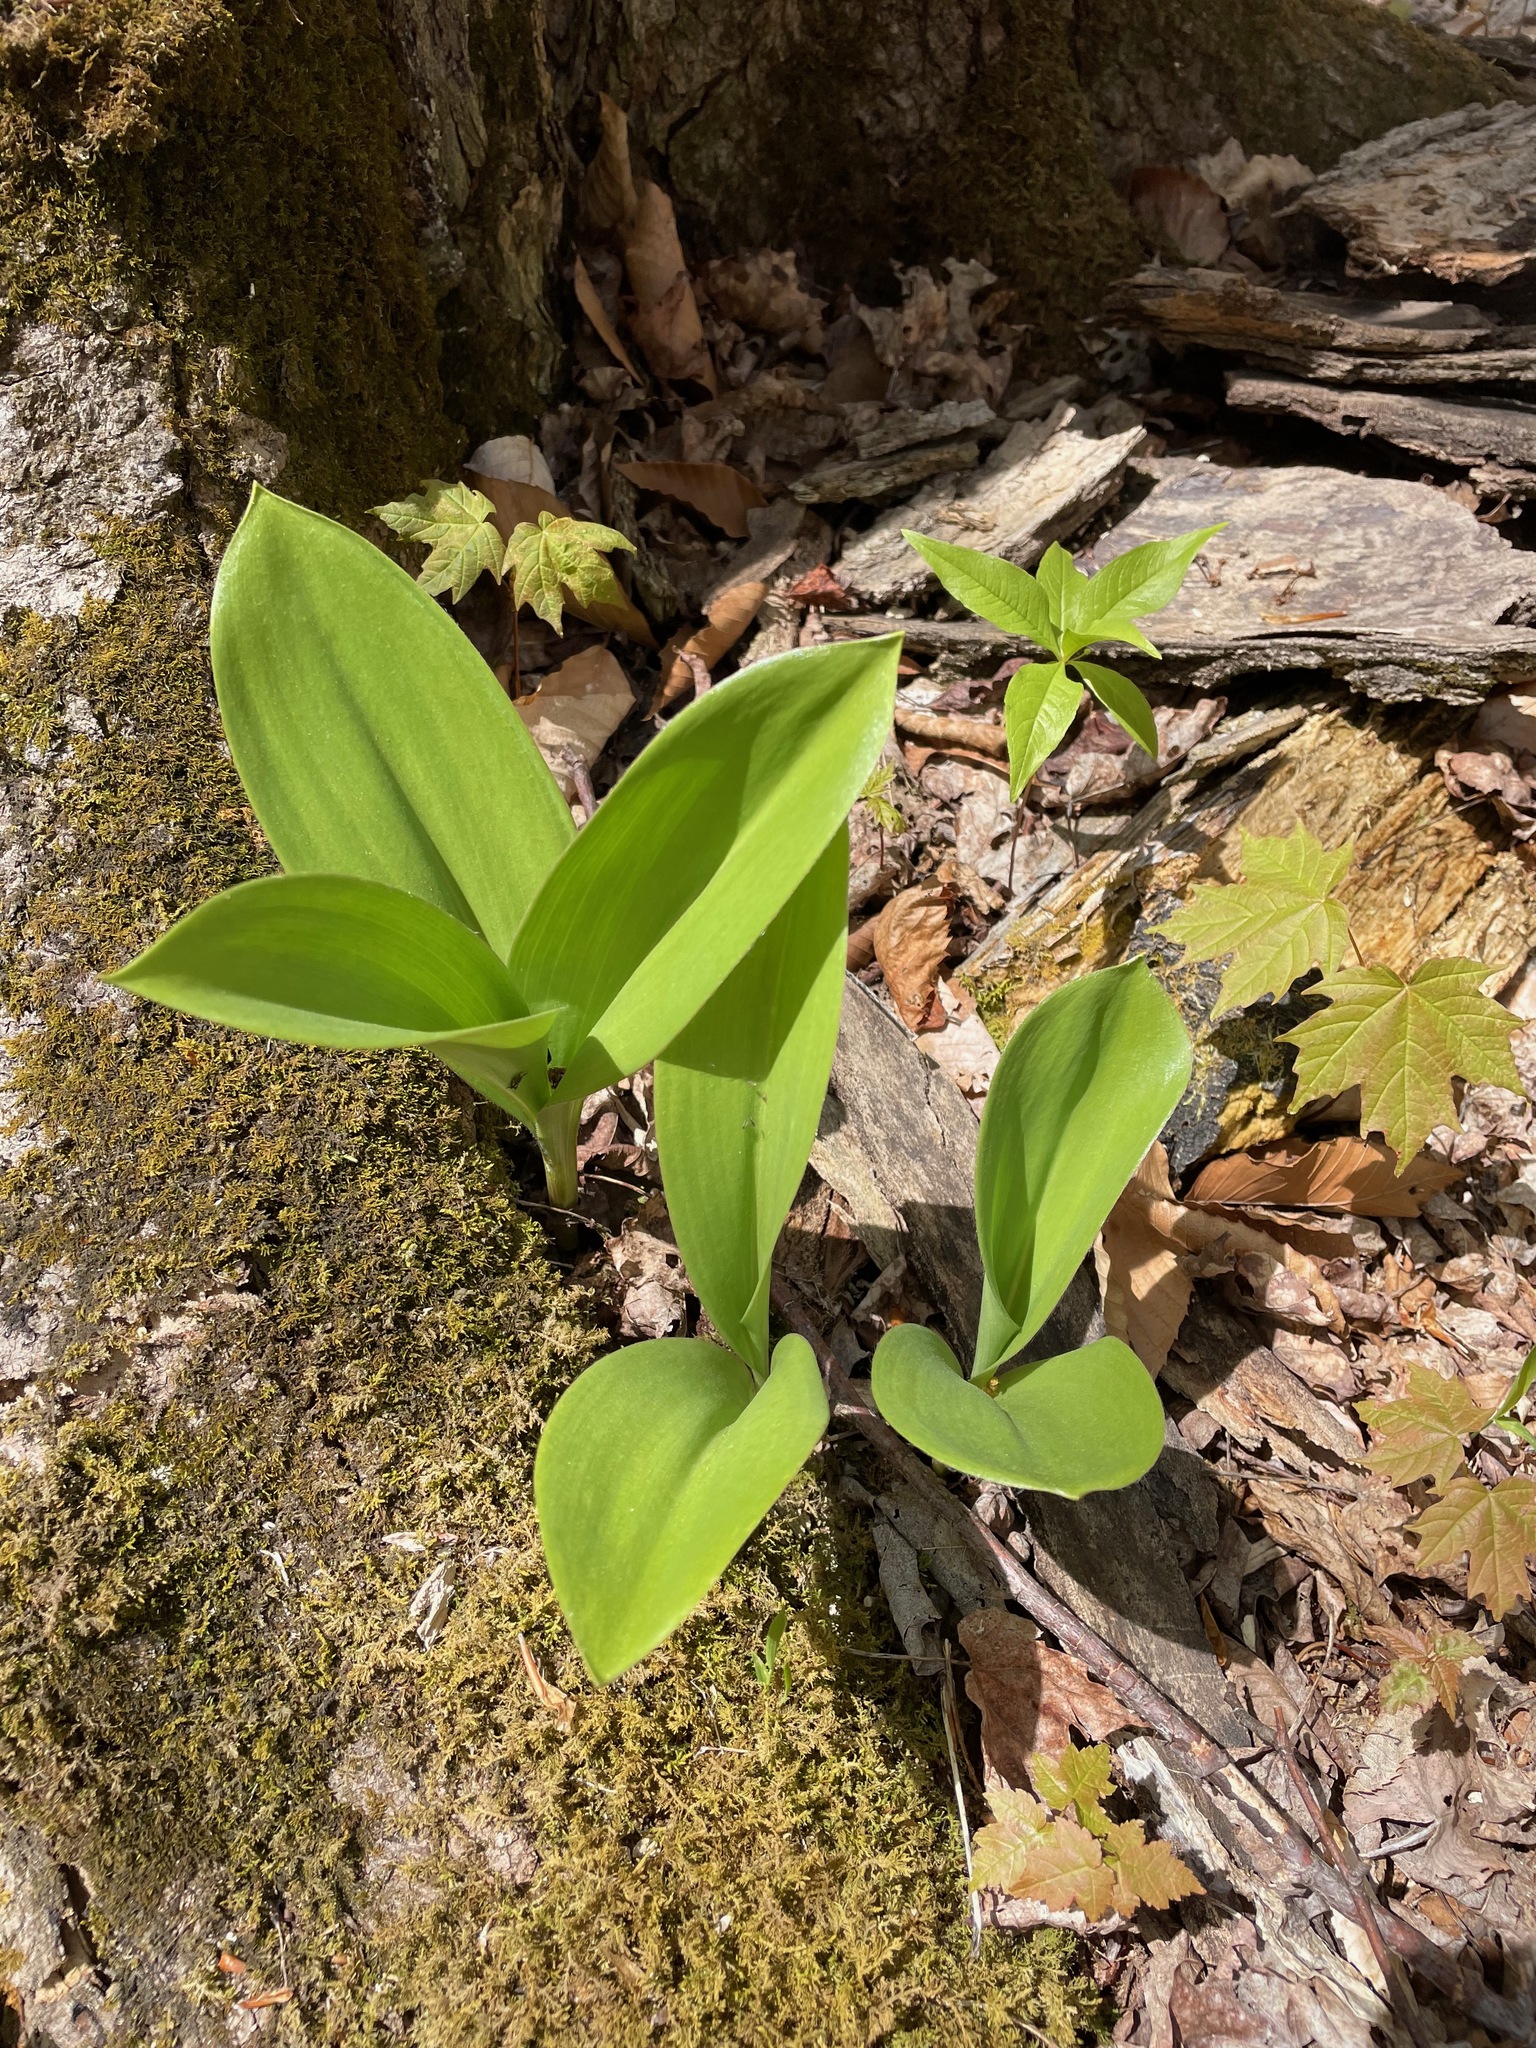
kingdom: Plantae
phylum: Tracheophyta
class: Liliopsida
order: Liliales
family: Liliaceae
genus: Clintonia
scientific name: Clintonia borealis
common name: Yellow clintonia
